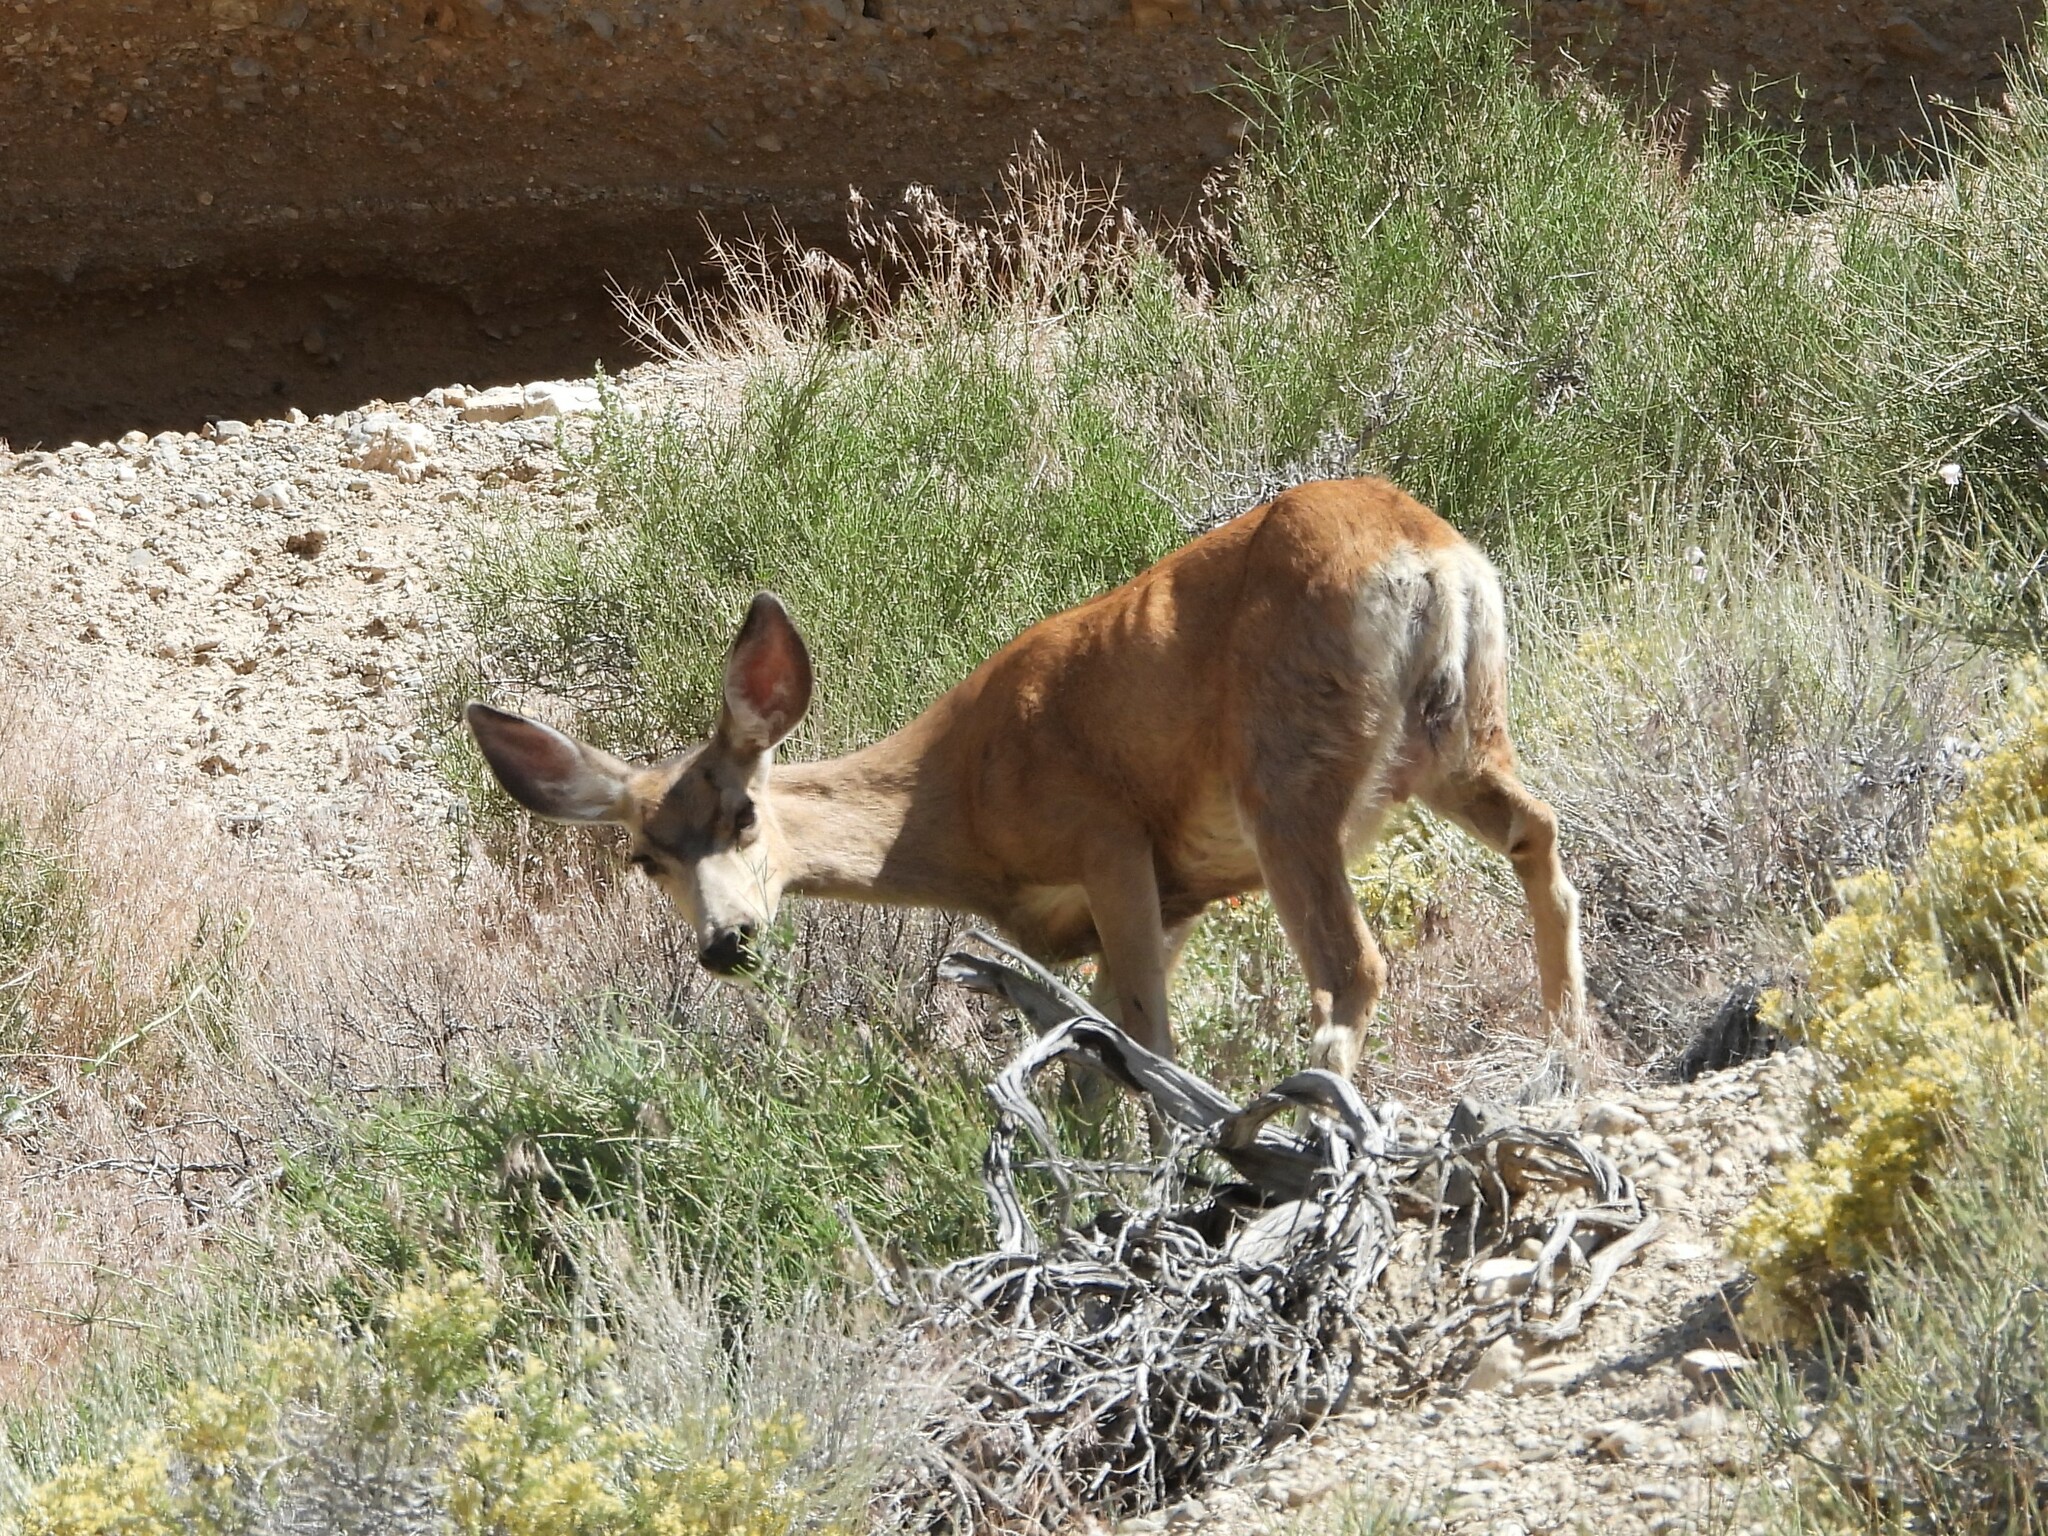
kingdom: Animalia
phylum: Chordata
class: Mammalia
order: Artiodactyla
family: Cervidae
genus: Odocoileus
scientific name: Odocoileus hemionus
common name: Mule deer
